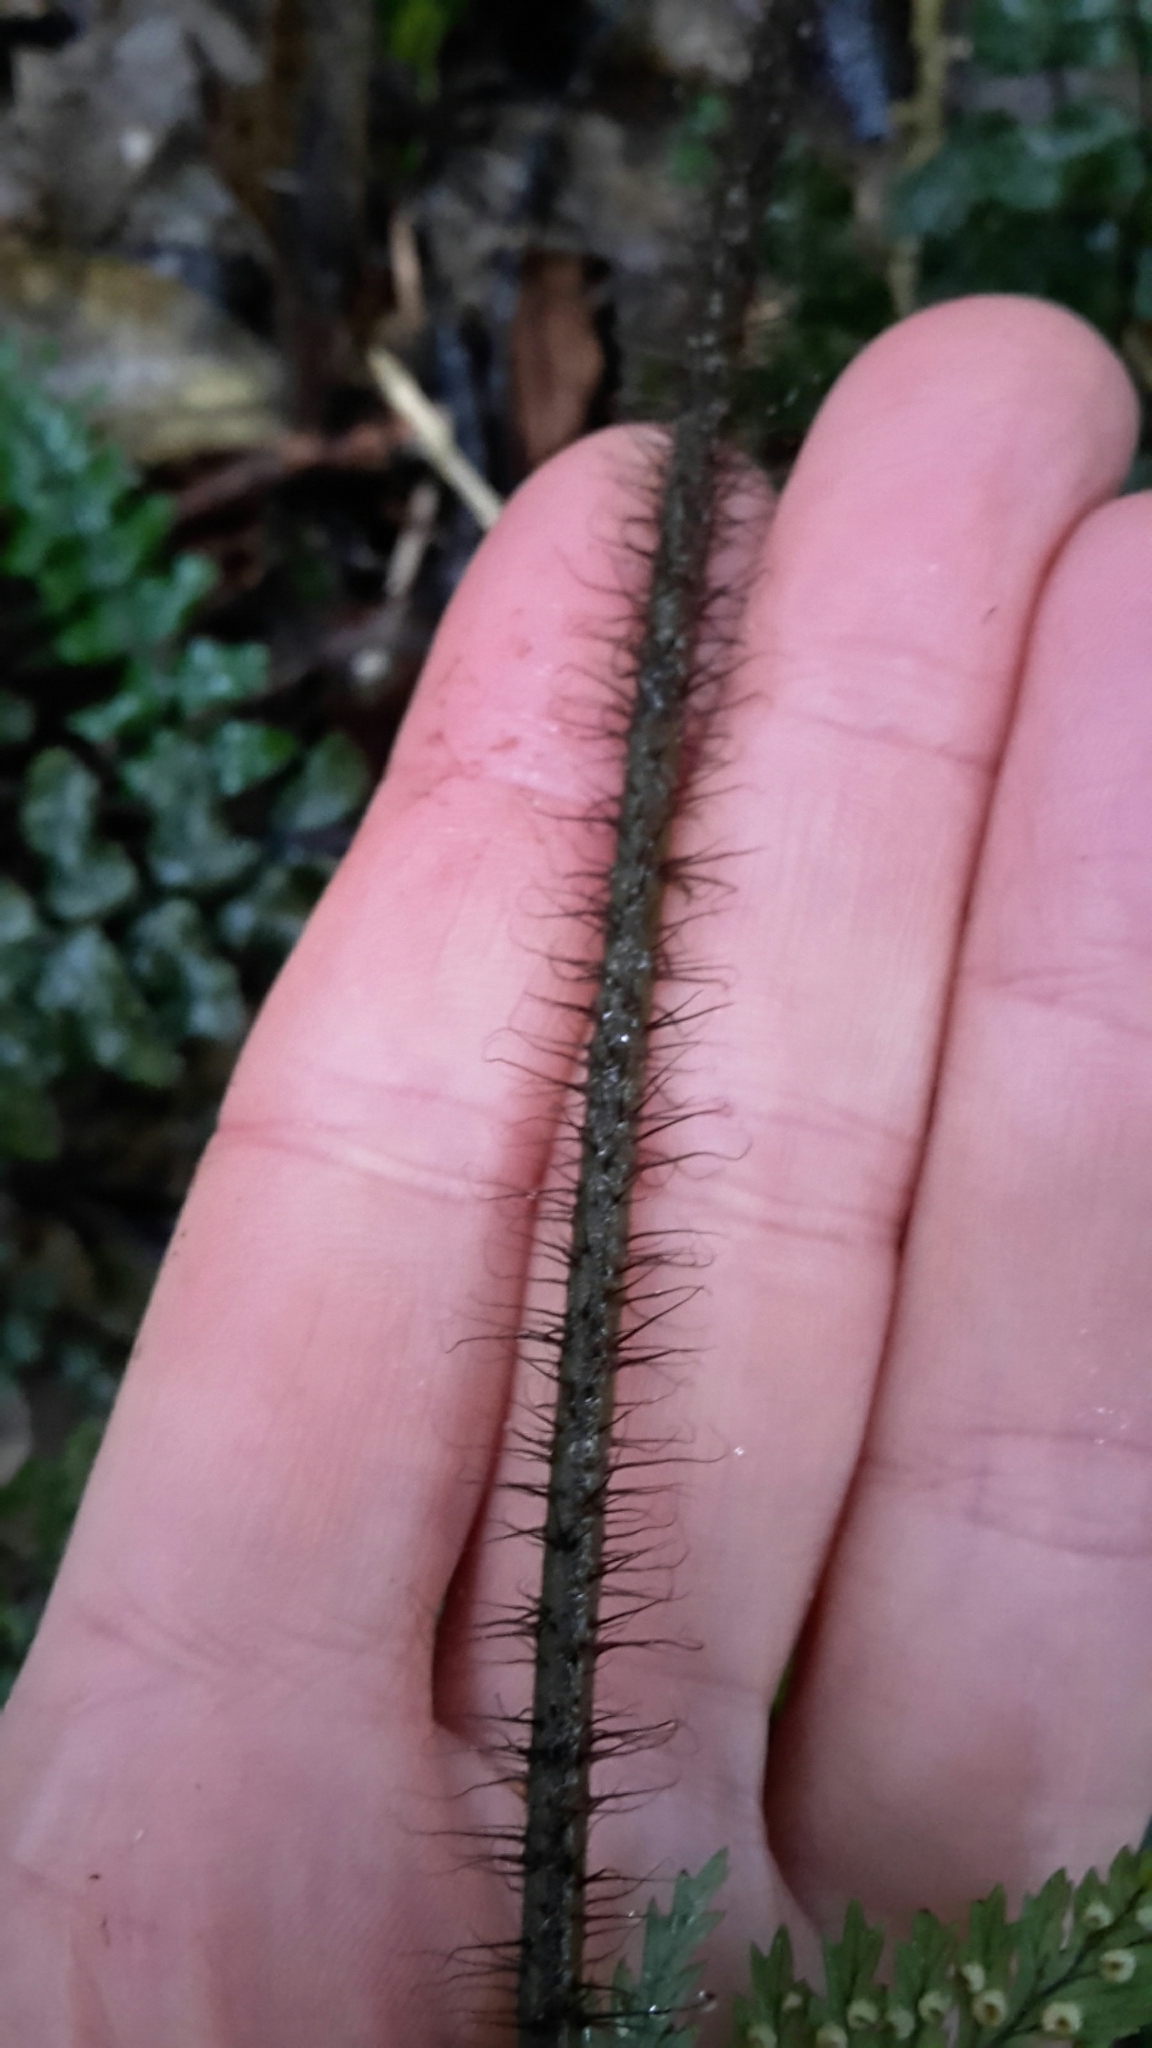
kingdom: Plantae
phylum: Tracheophyta
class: Polypodiopsida
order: Polypodiales
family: Dryopteridaceae
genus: Lastreopsis
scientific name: Lastreopsis hispida
